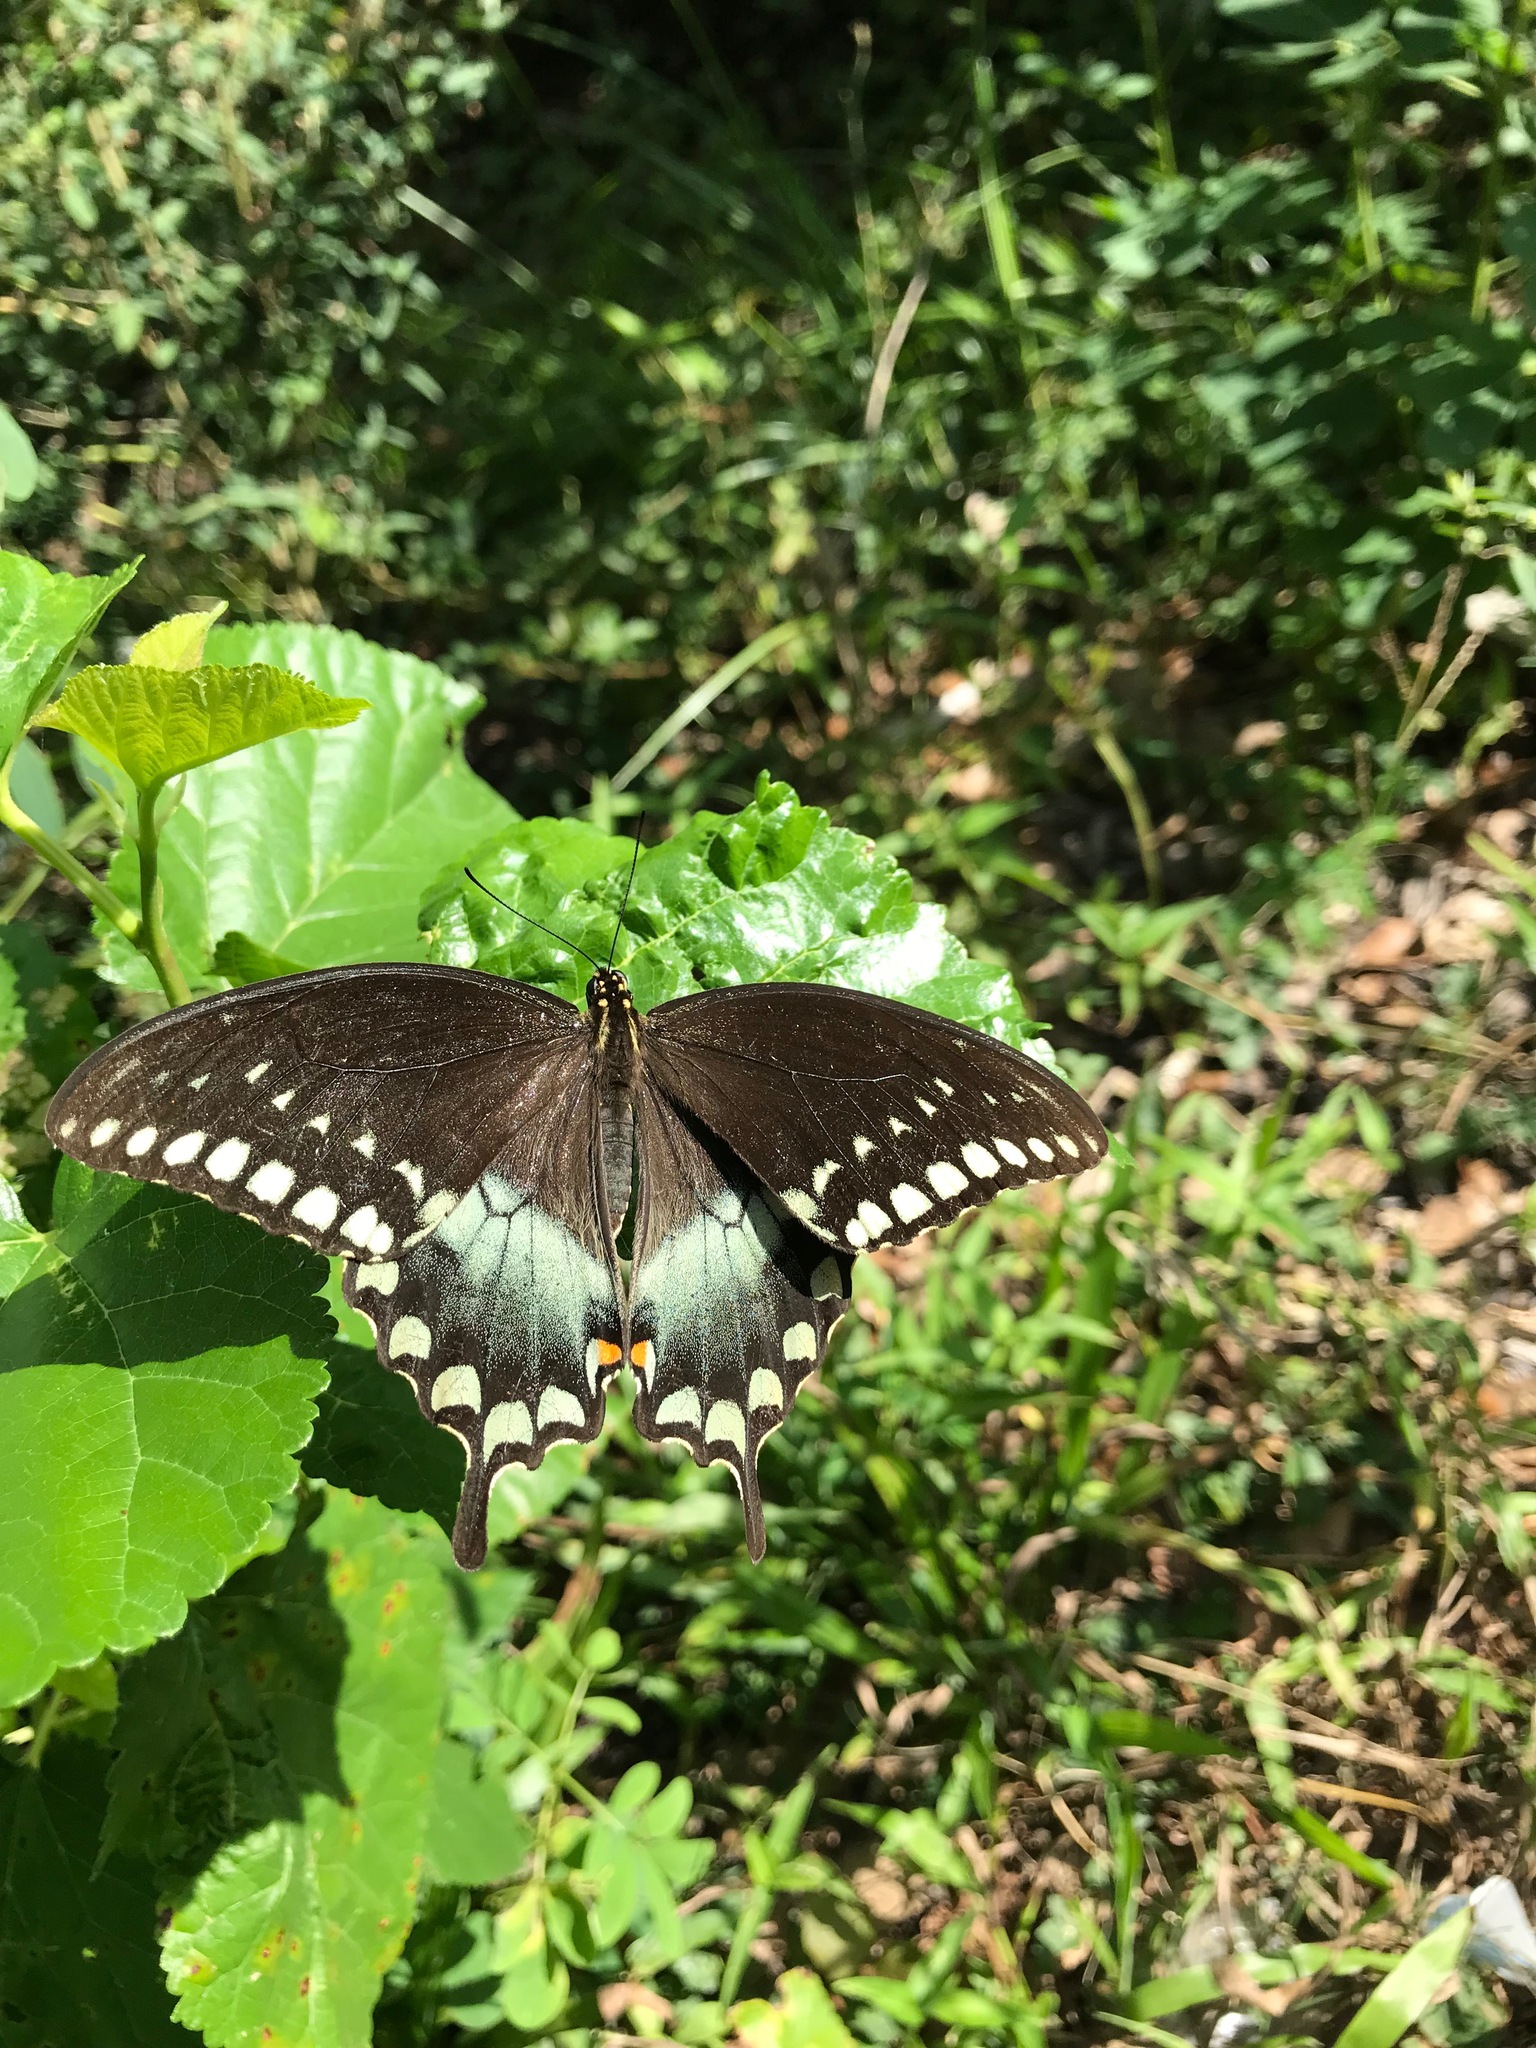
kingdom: Animalia
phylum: Arthropoda
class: Insecta
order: Lepidoptera
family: Papilionidae
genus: Papilio
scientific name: Papilio troilus
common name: Spicebush swallowtail
